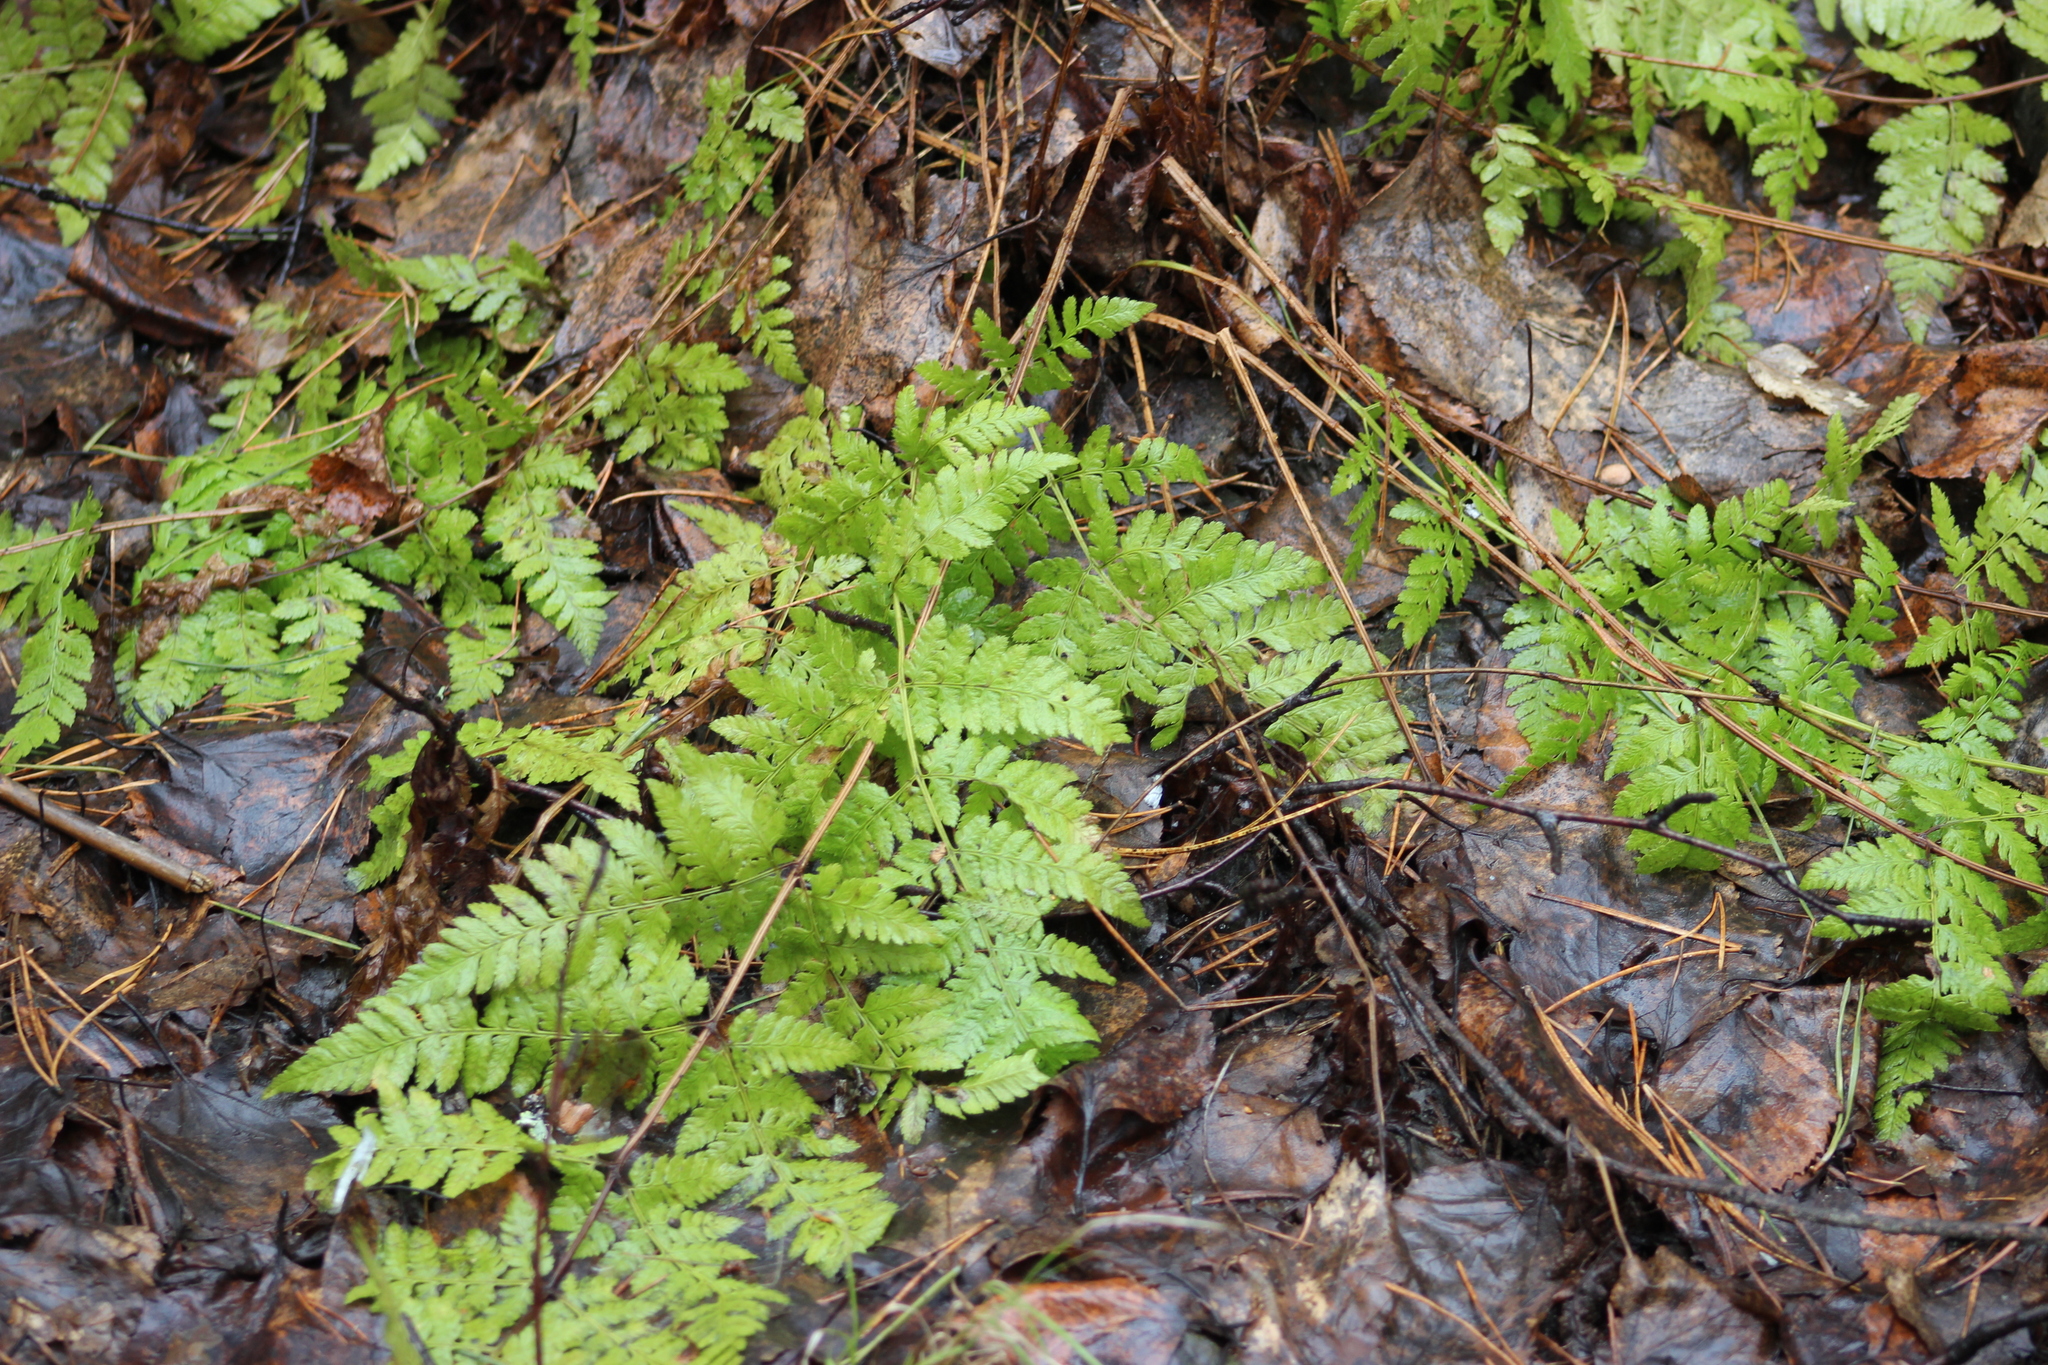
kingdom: Plantae
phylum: Tracheophyta
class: Polypodiopsida
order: Polypodiales
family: Dryopteridaceae
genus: Dryopteris
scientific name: Dryopteris carthusiana
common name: Narrow buckler-fern
